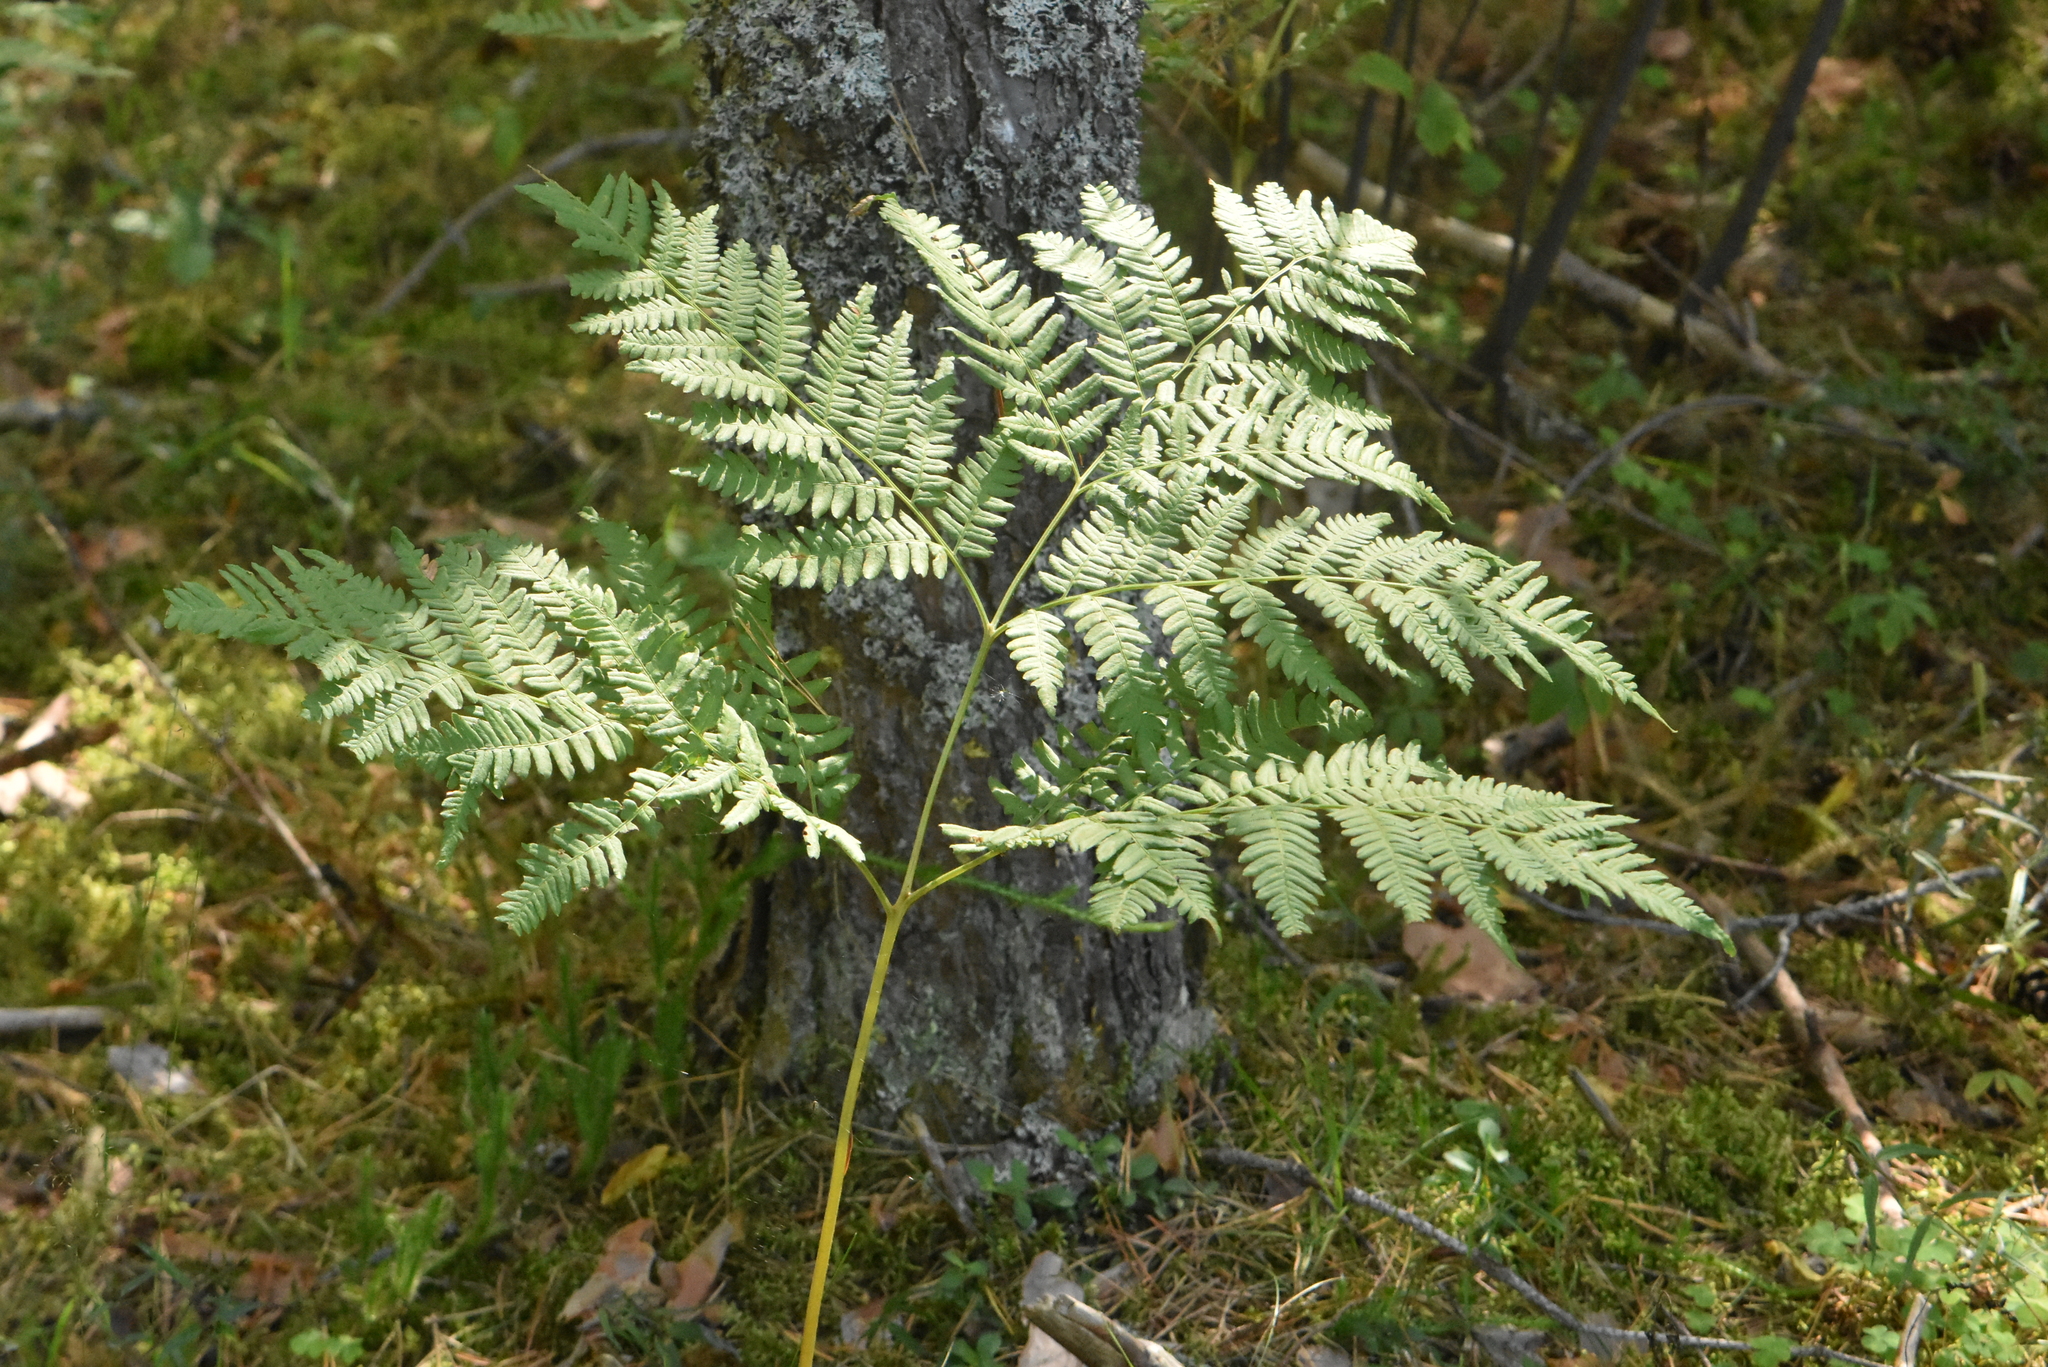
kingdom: Plantae
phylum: Tracheophyta
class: Polypodiopsida
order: Polypodiales
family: Dennstaedtiaceae
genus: Pteridium
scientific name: Pteridium aquilinum
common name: Bracken
